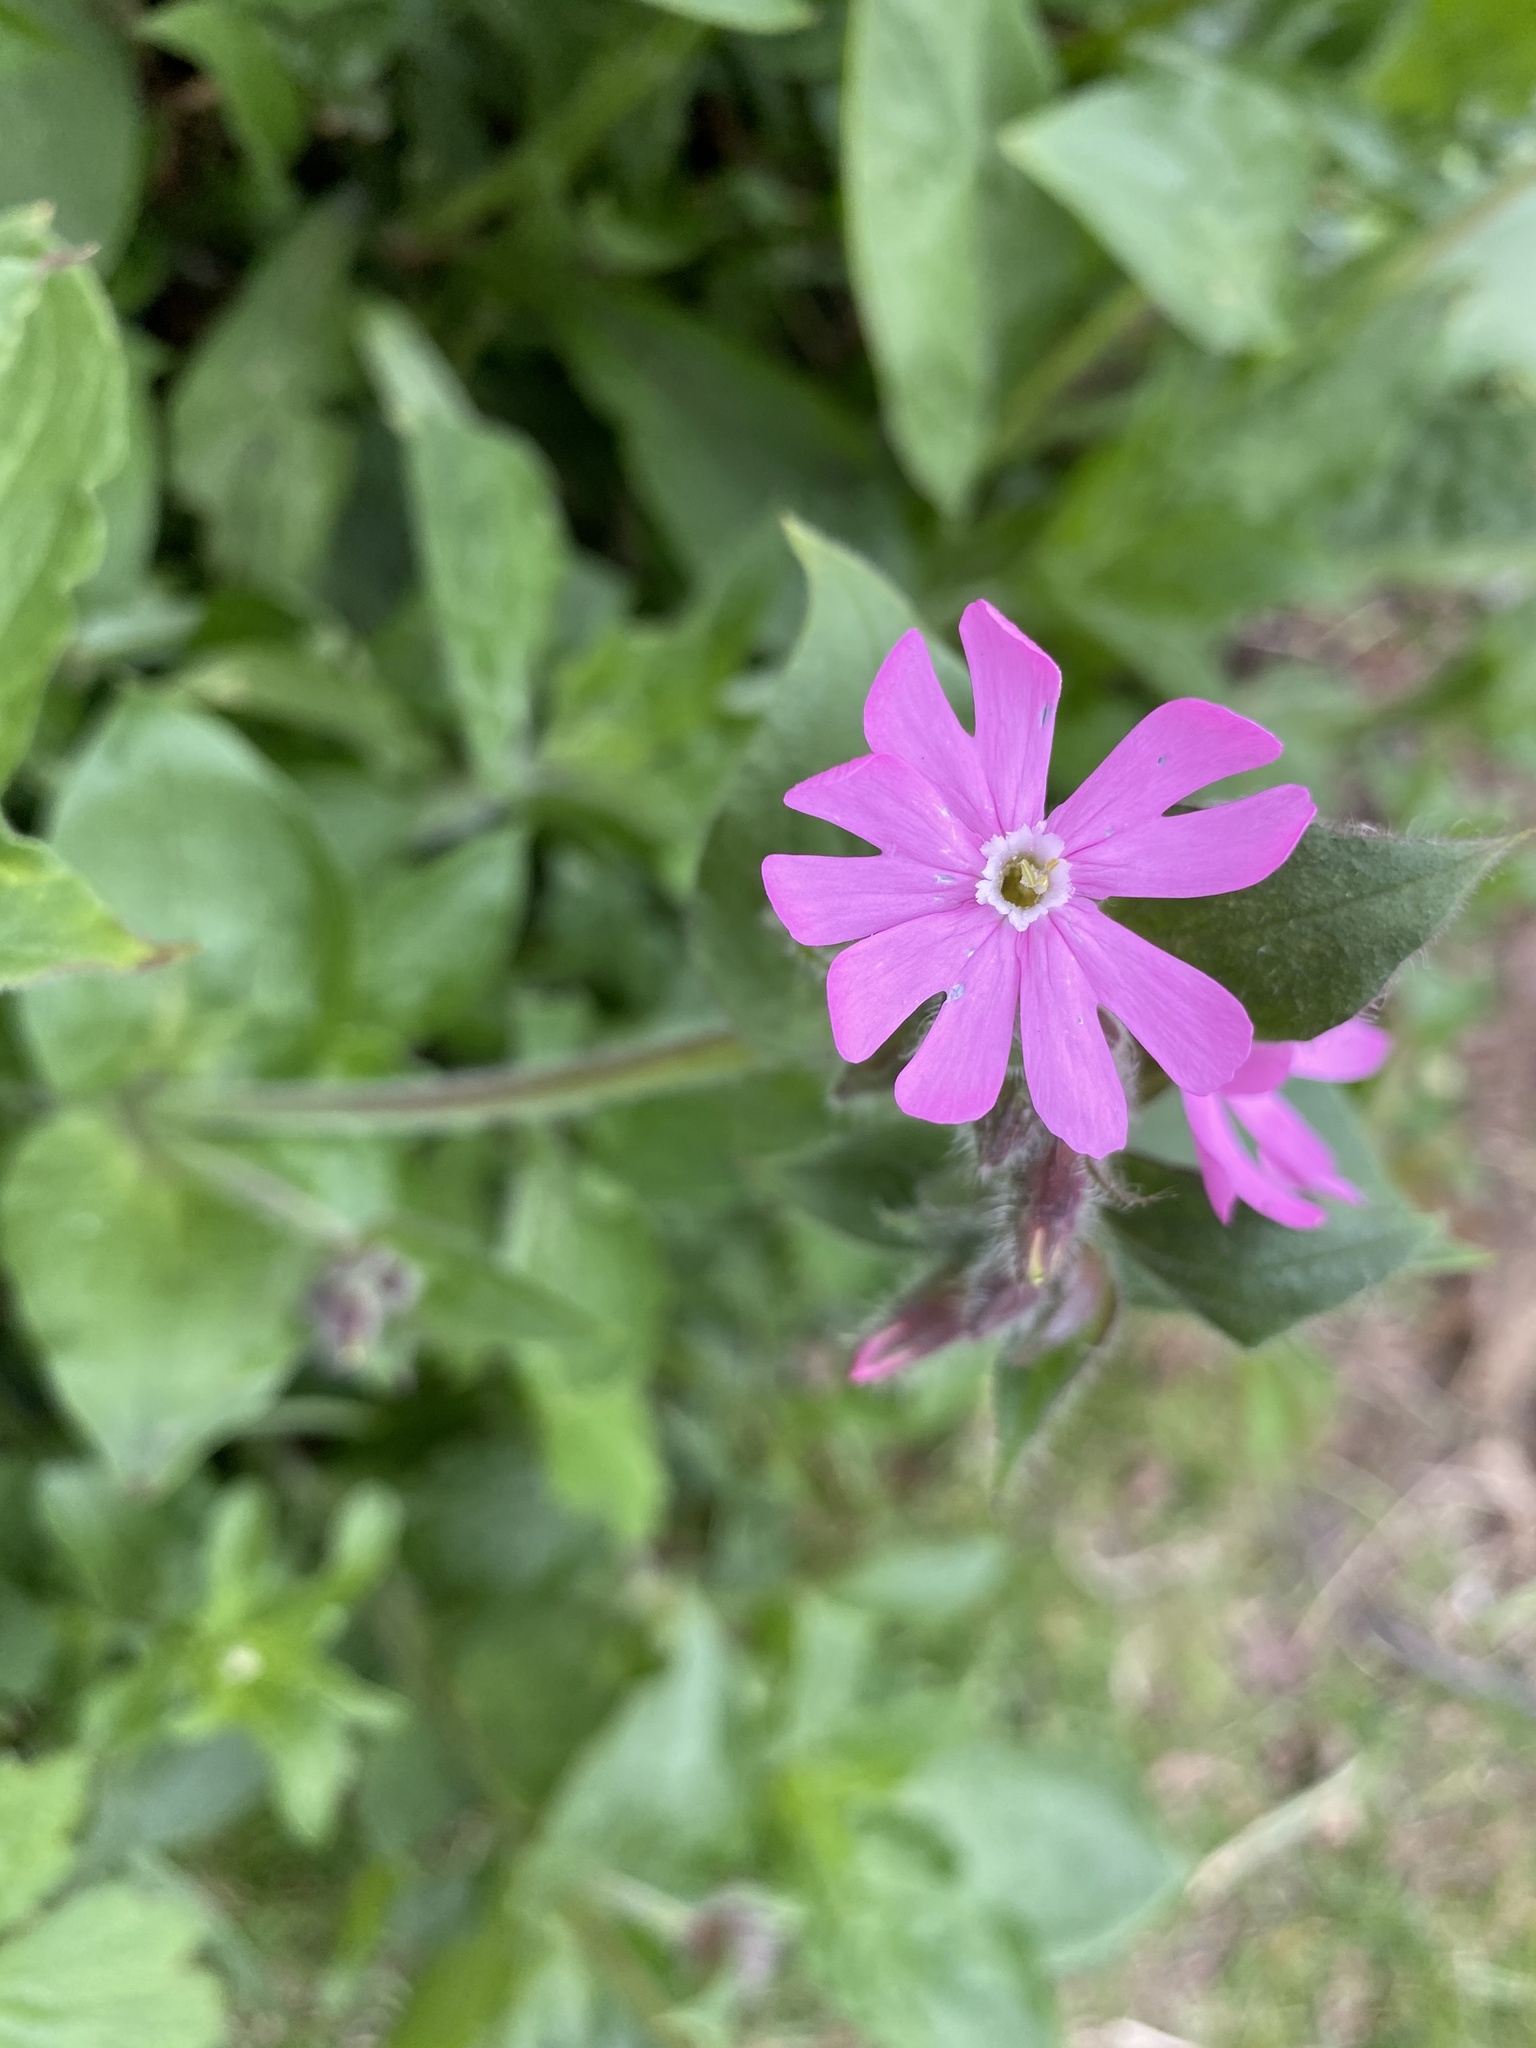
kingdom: Plantae
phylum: Tracheophyta
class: Magnoliopsida
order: Caryophyllales
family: Caryophyllaceae
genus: Silene
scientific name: Silene dioica
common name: Red campion
